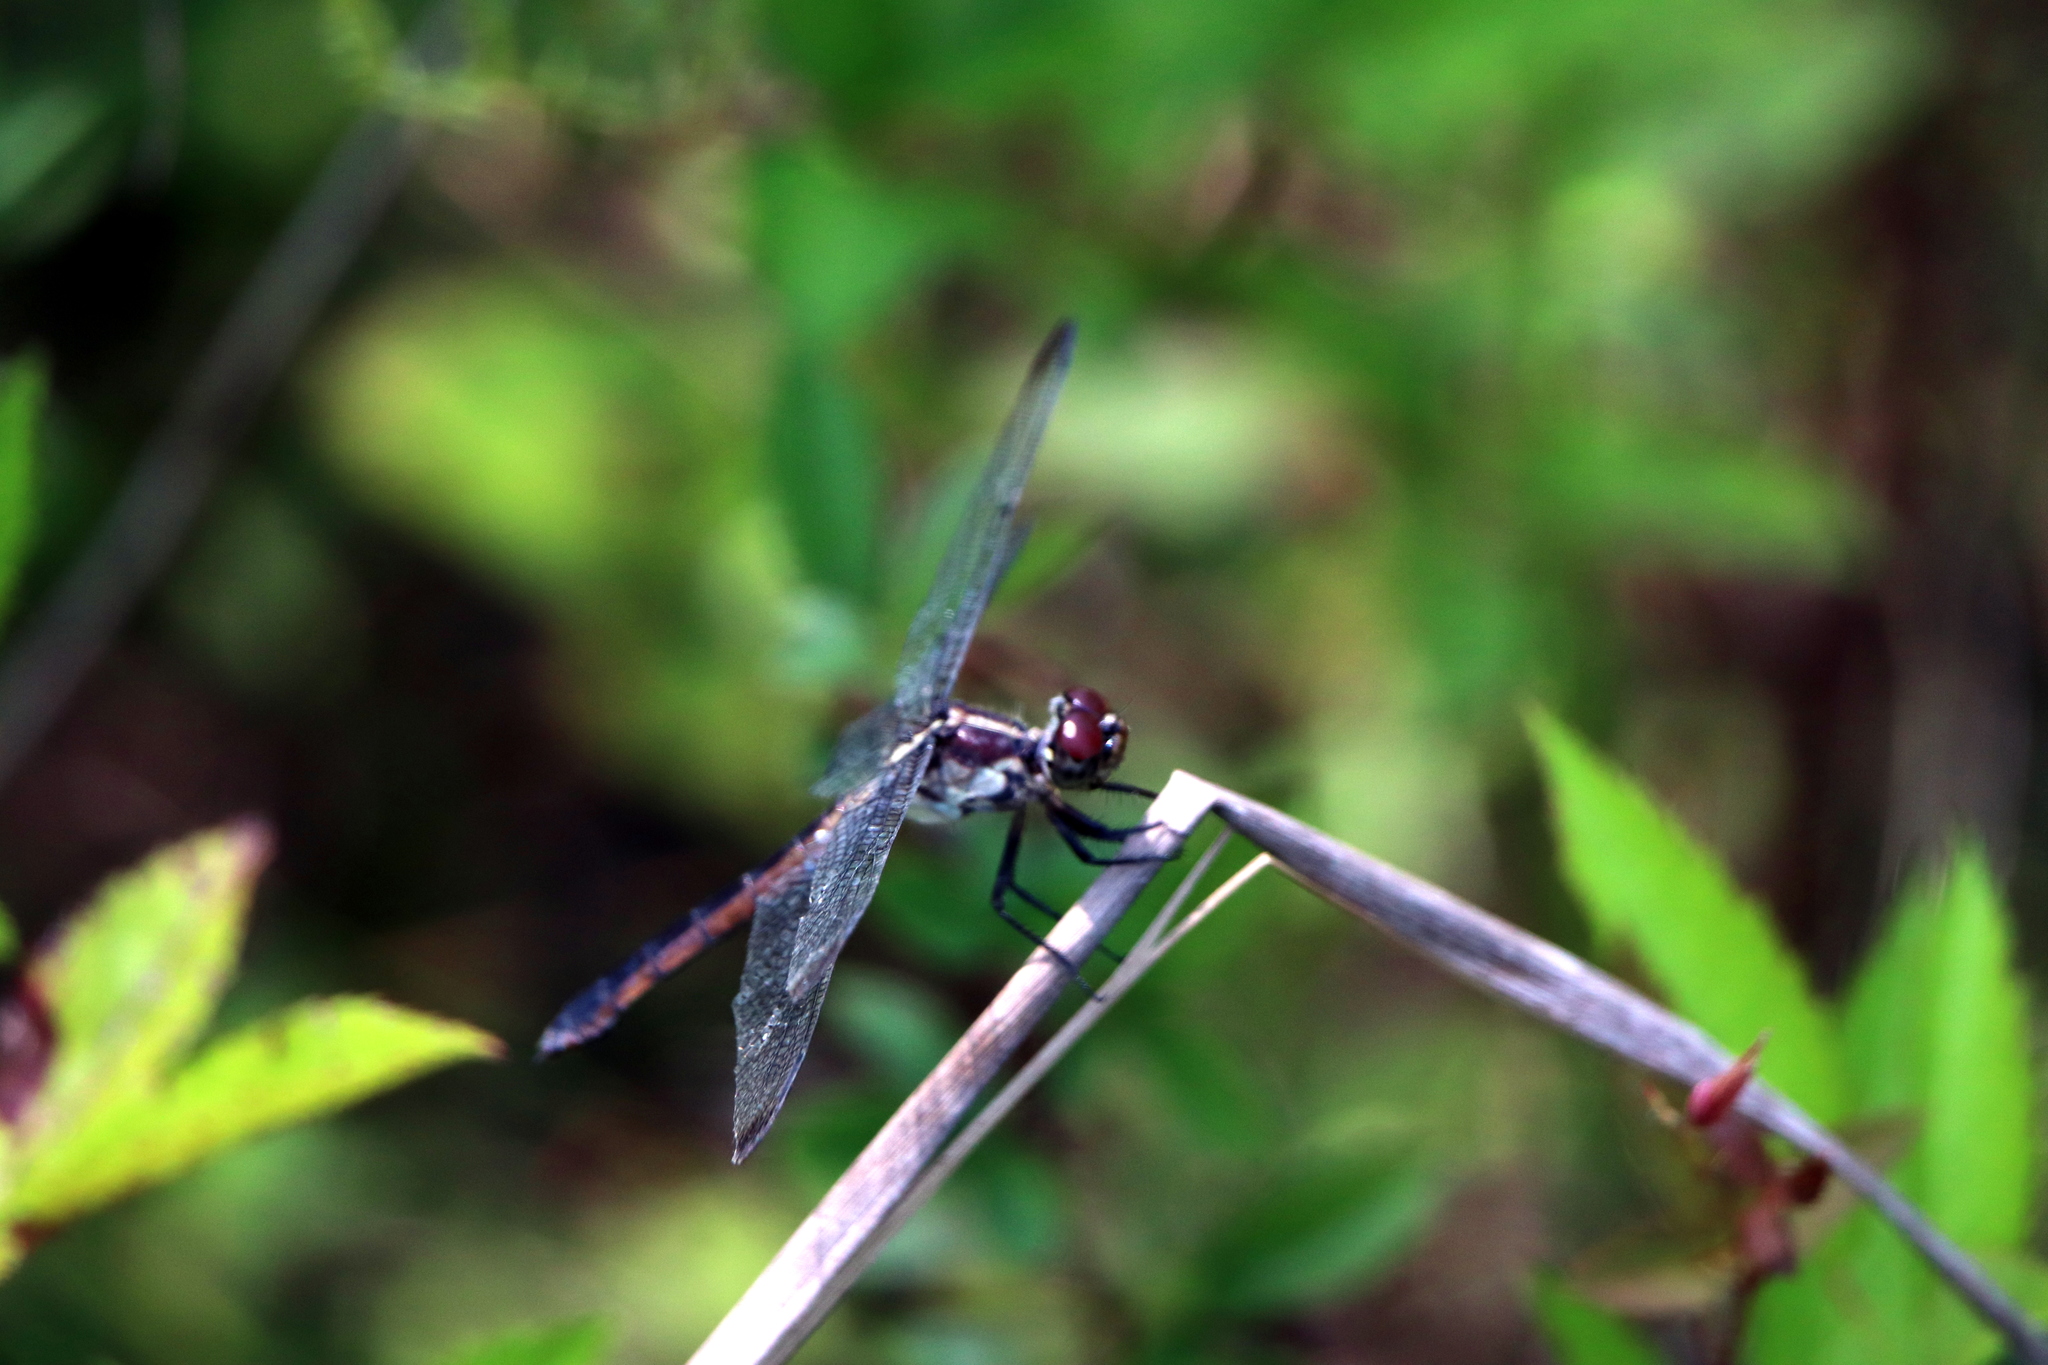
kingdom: Animalia
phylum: Arthropoda
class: Insecta
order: Odonata
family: Libellulidae
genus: Libellula
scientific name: Libellula incesta
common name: Slaty skimmer
